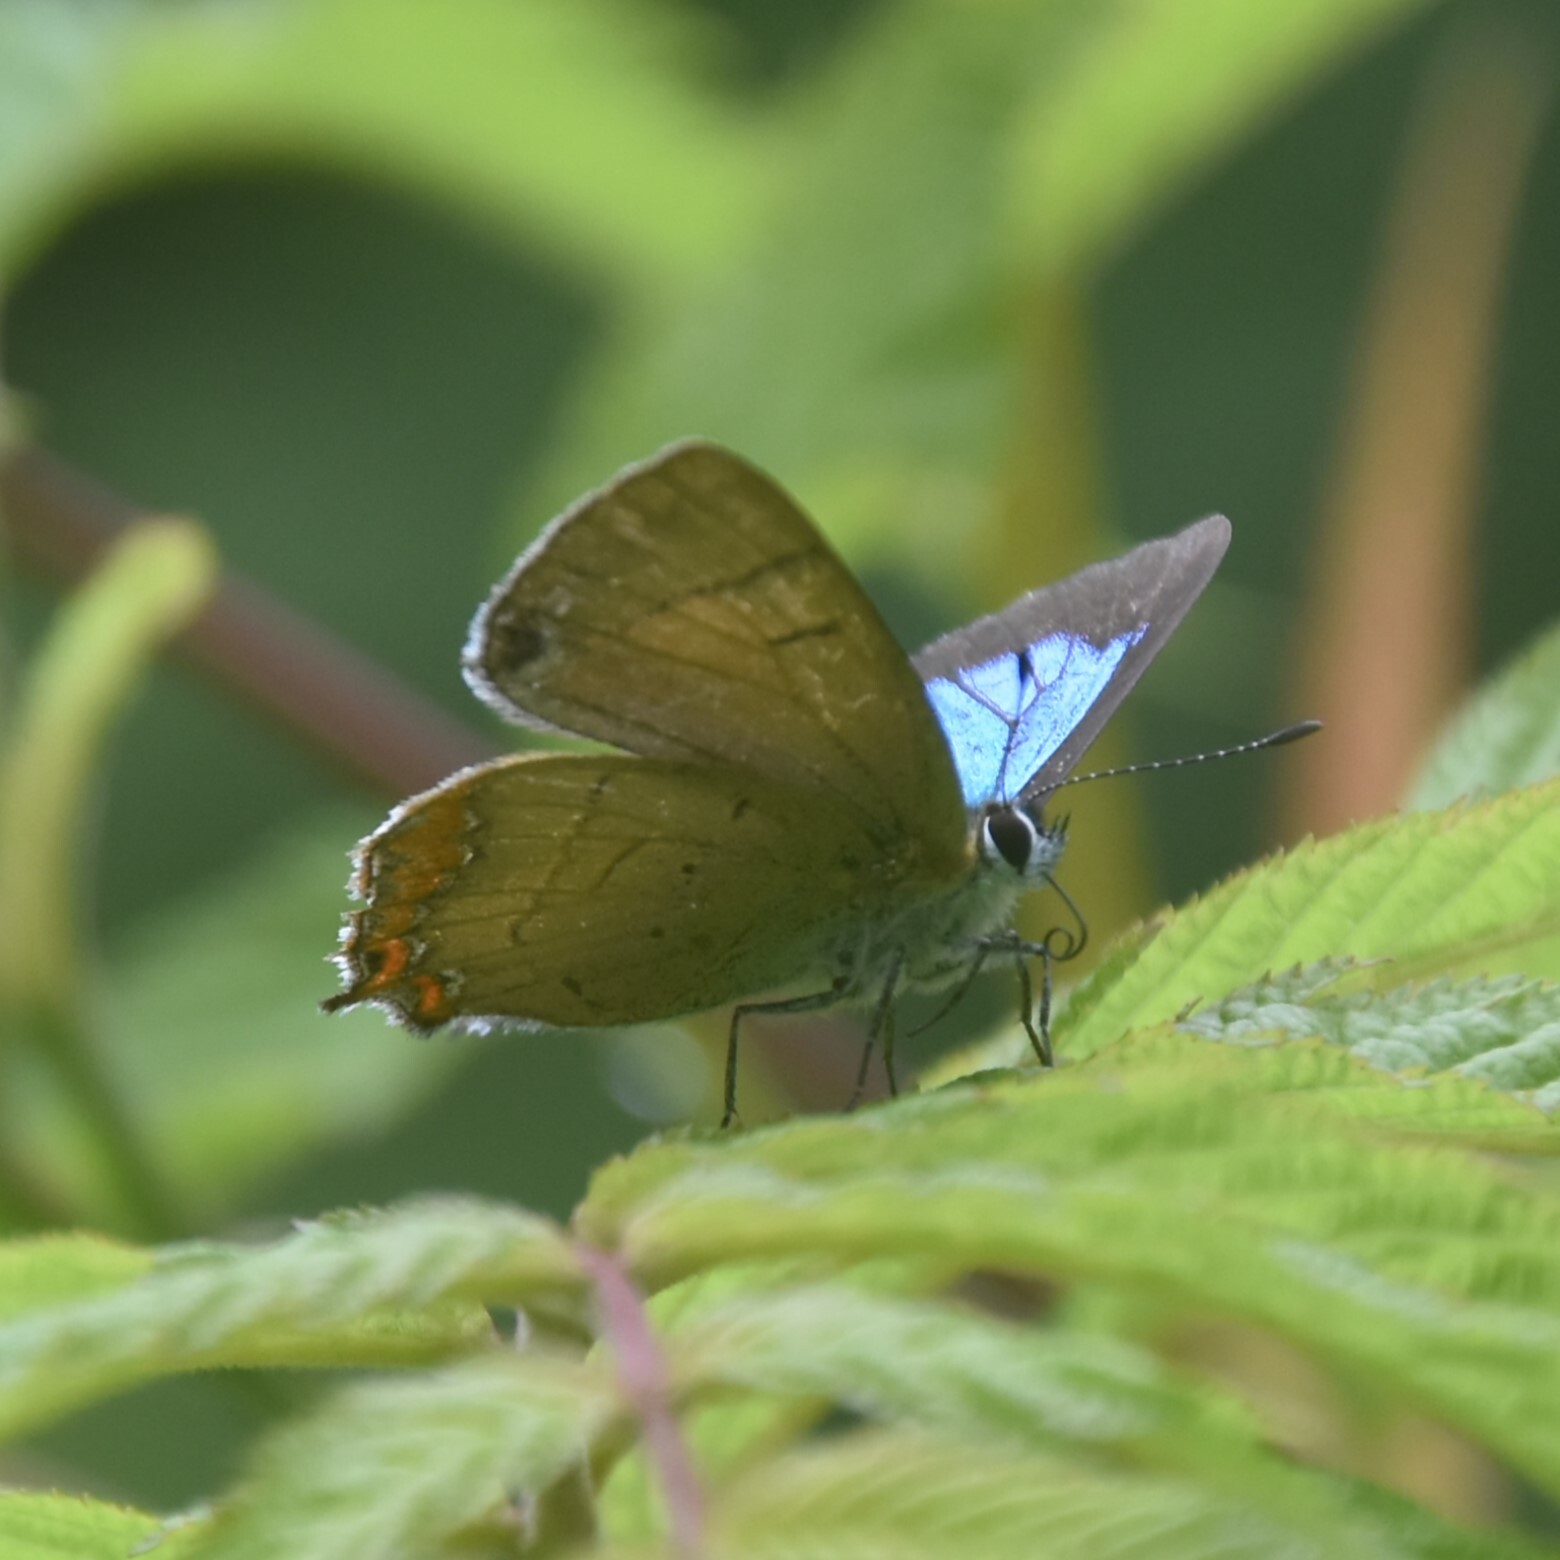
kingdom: Animalia
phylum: Arthropoda
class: Insecta
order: Lepidoptera
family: Lycaenidae
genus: Heliophorus
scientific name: Heliophorus
